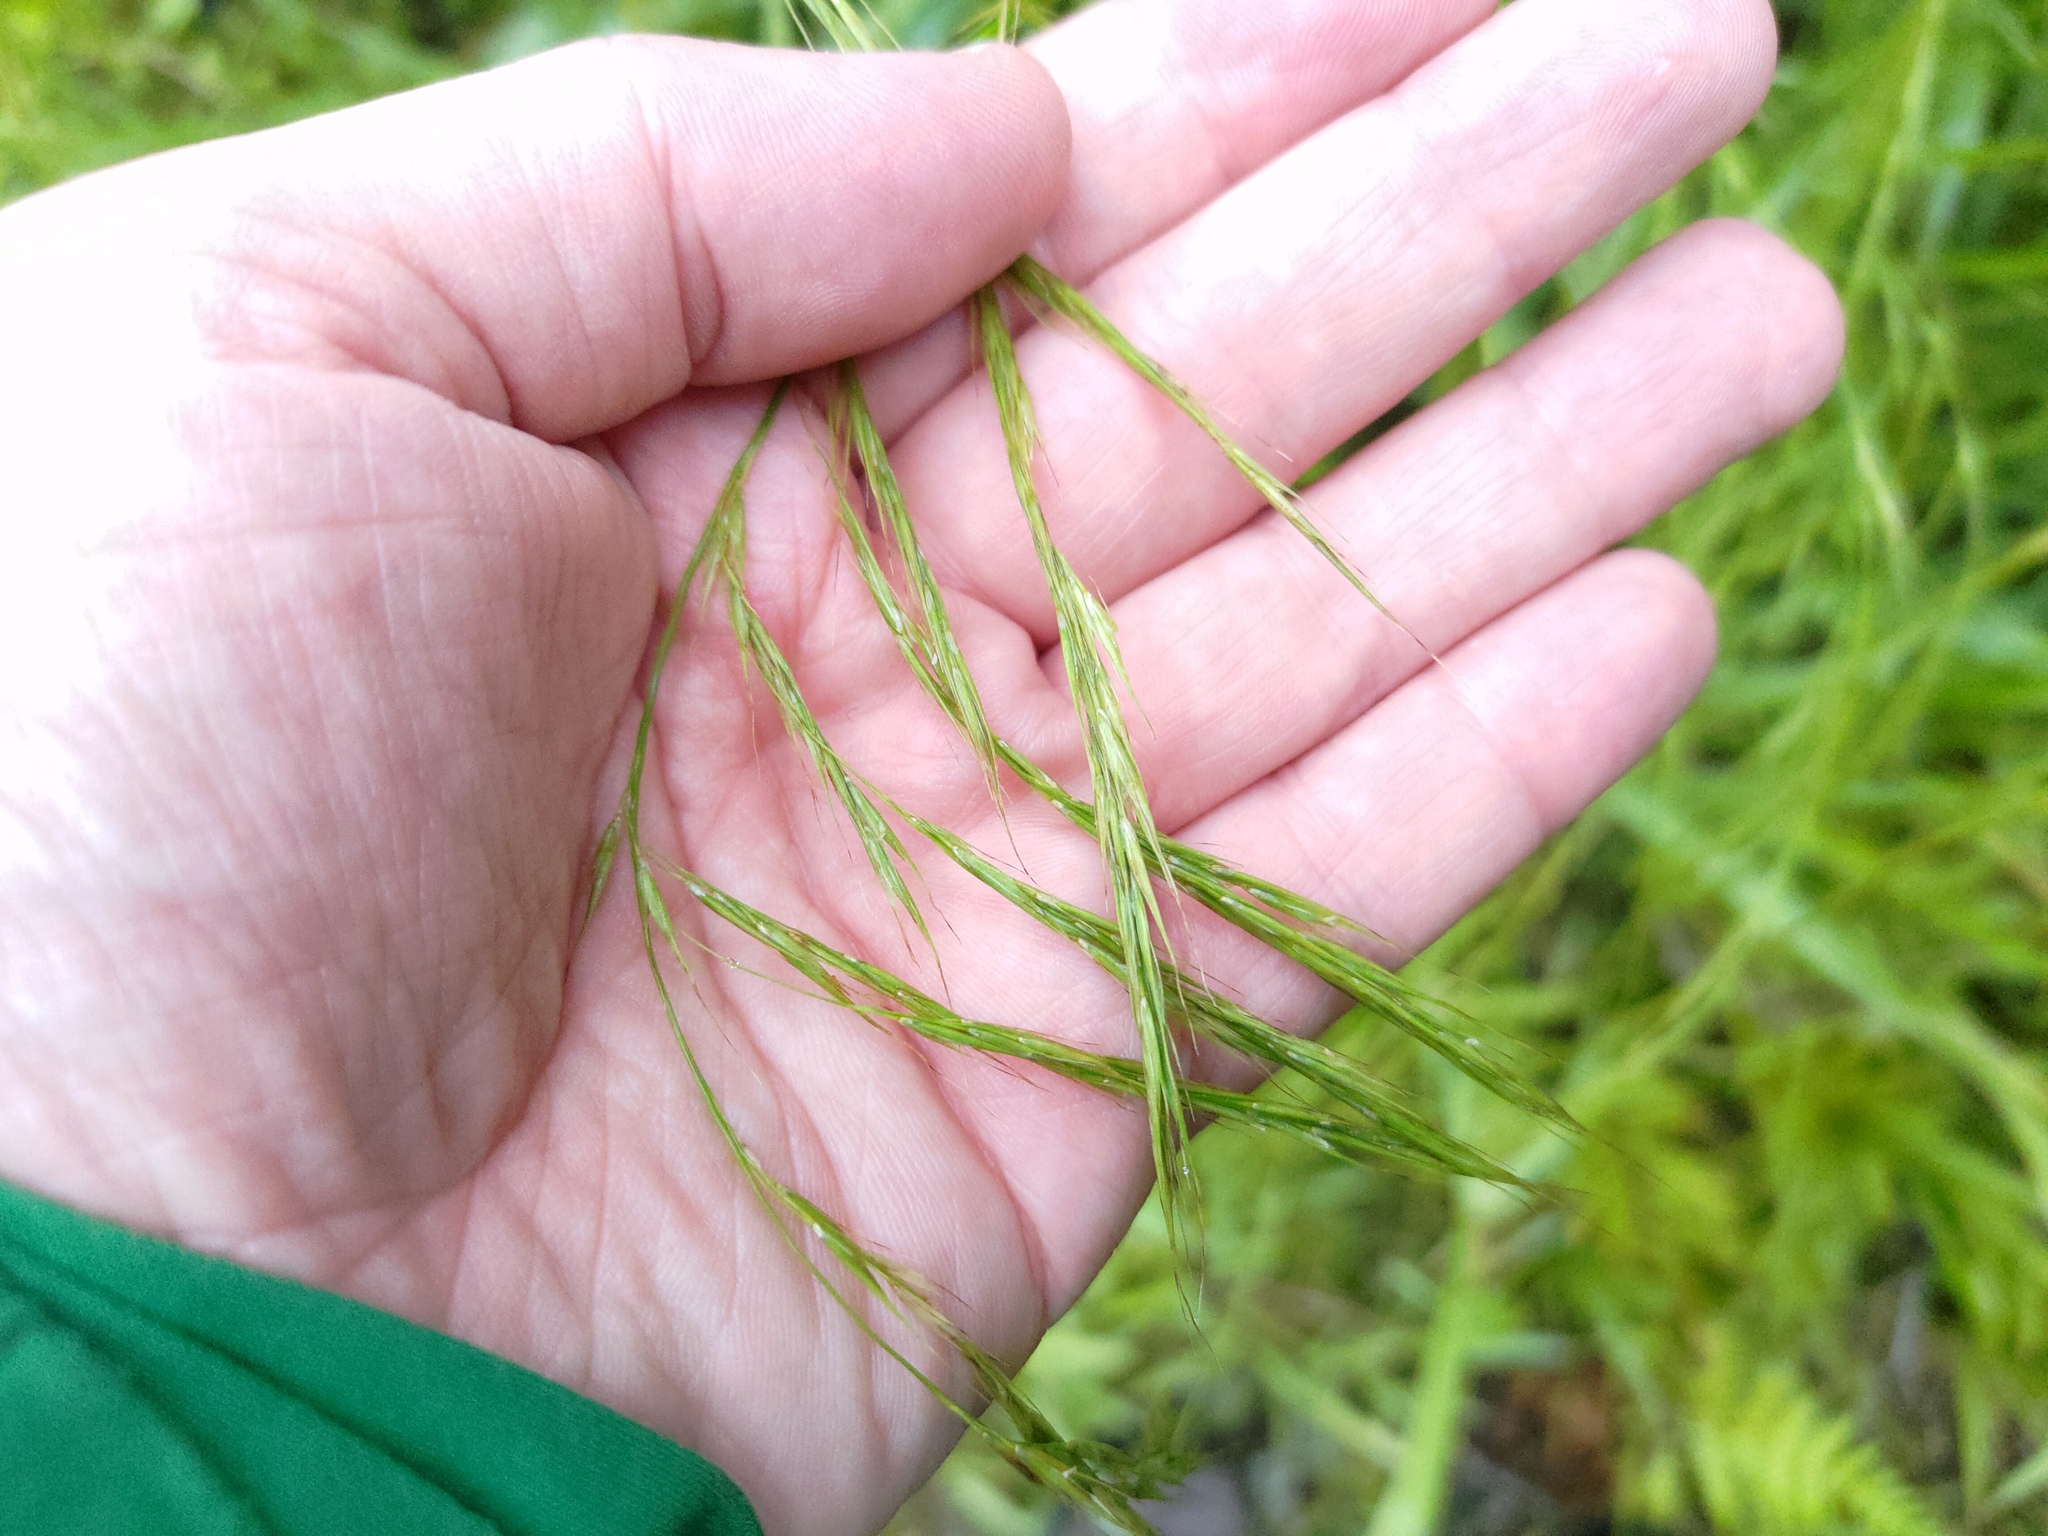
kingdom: Plantae
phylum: Tracheophyta
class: Liliopsida
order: Poales
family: Poaceae
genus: Ehrharta
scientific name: Ehrharta diplax
